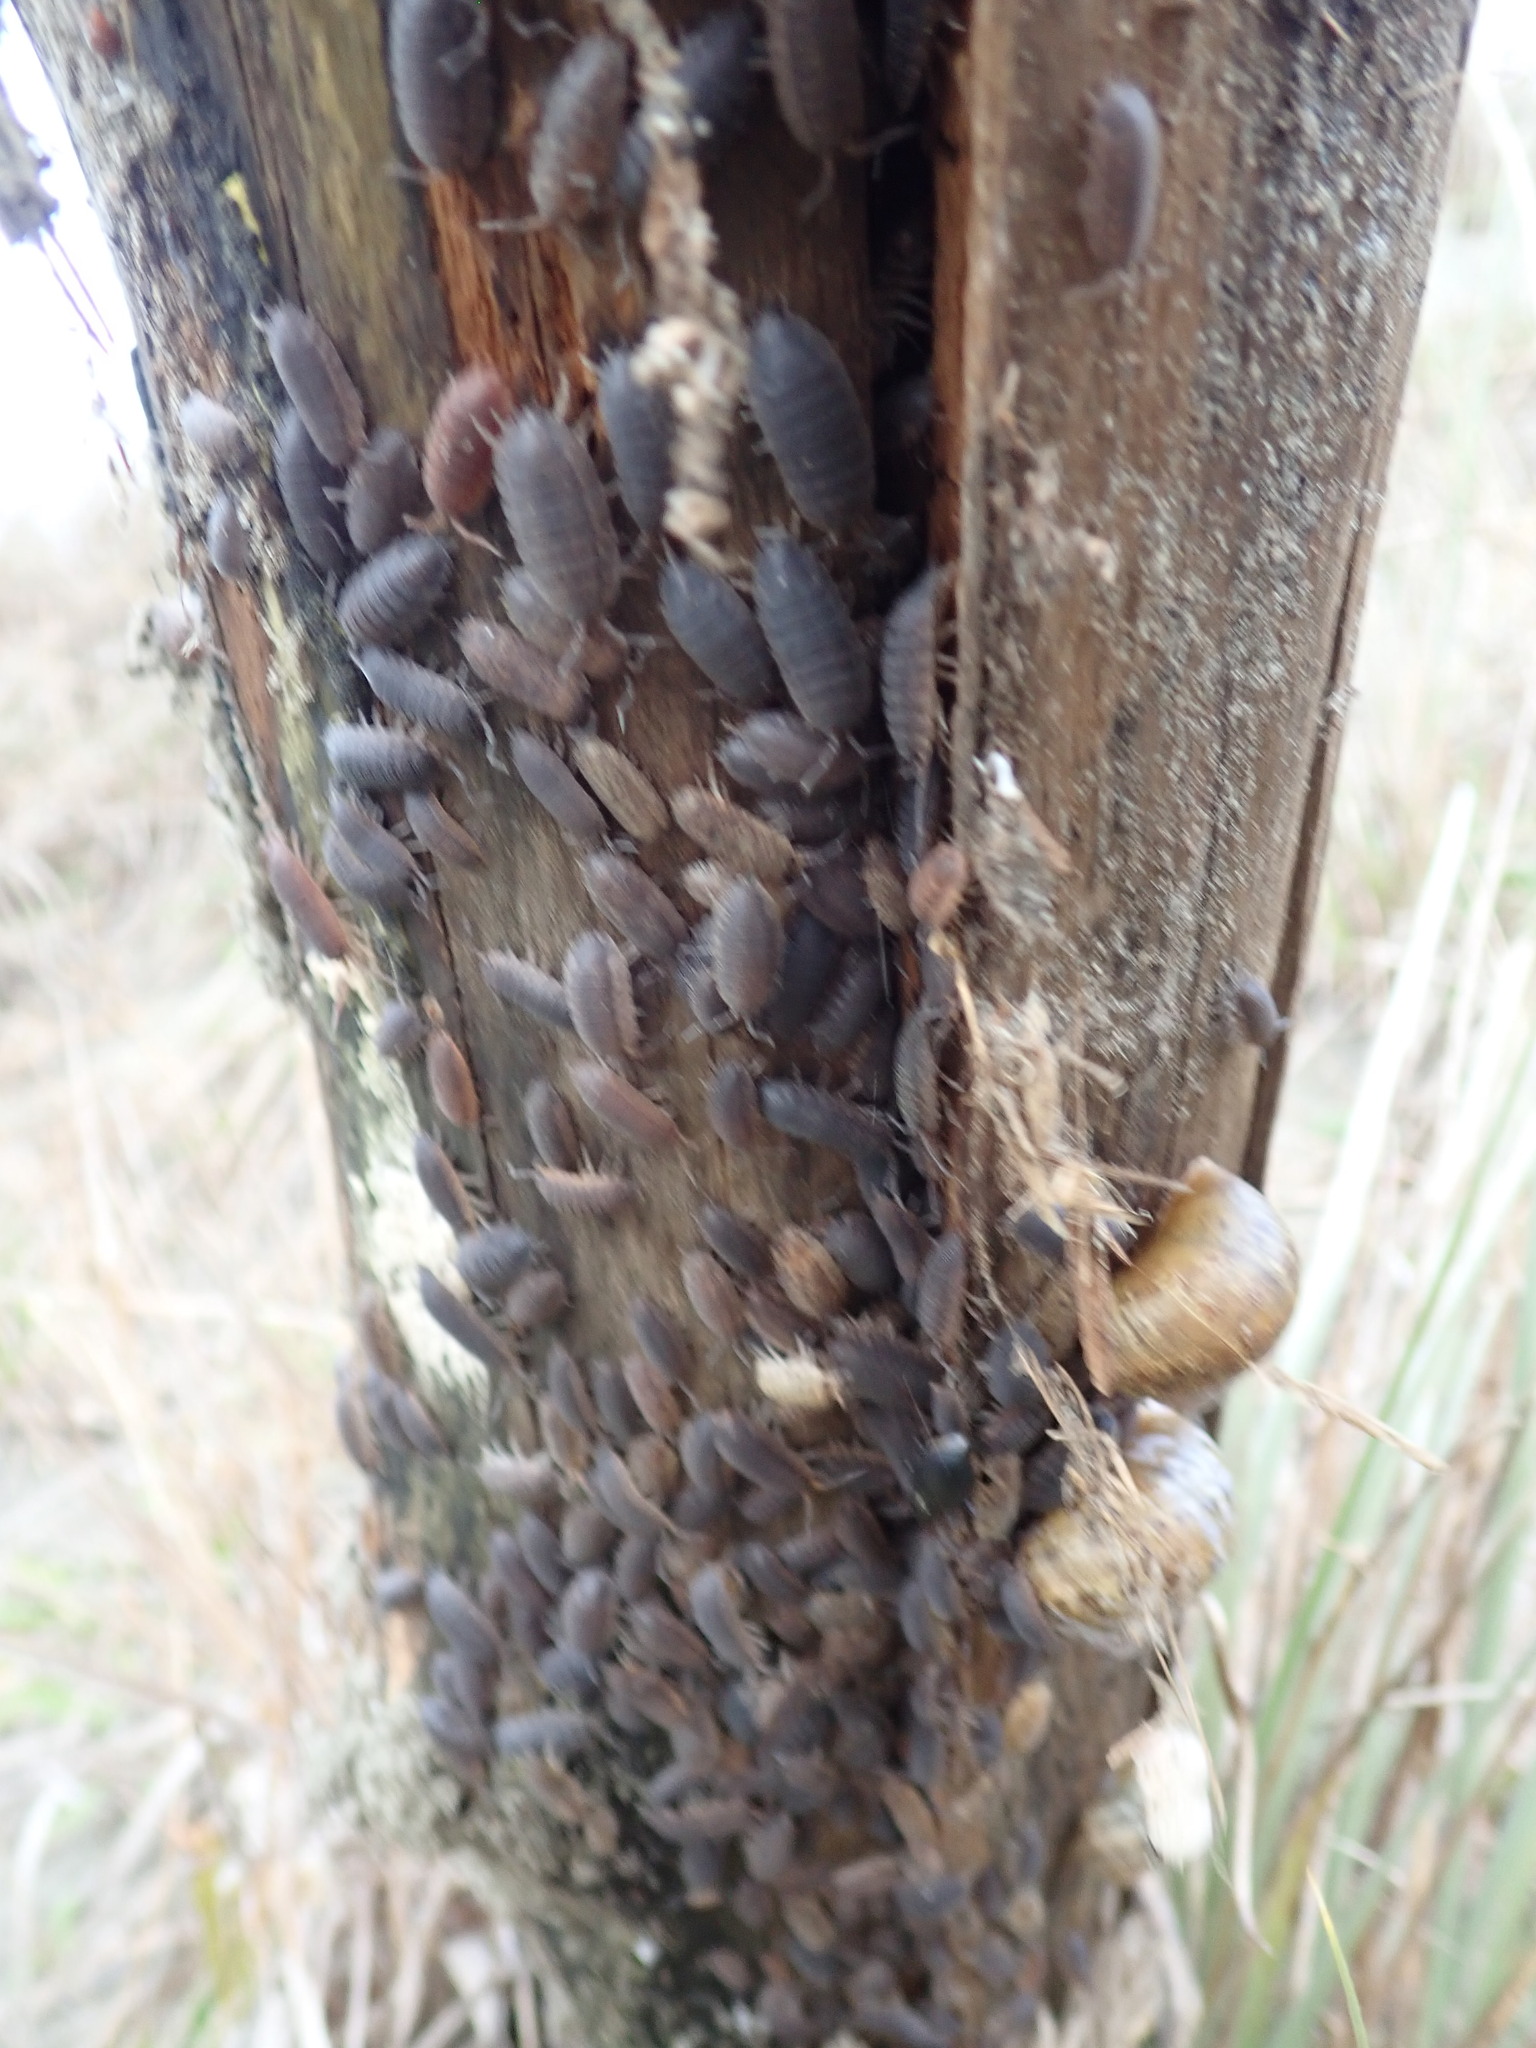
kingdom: Animalia
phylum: Arthropoda
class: Malacostraca
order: Isopoda
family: Porcellionidae
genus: Porcellio
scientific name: Porcellio scaber
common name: Common rough woodlouse
